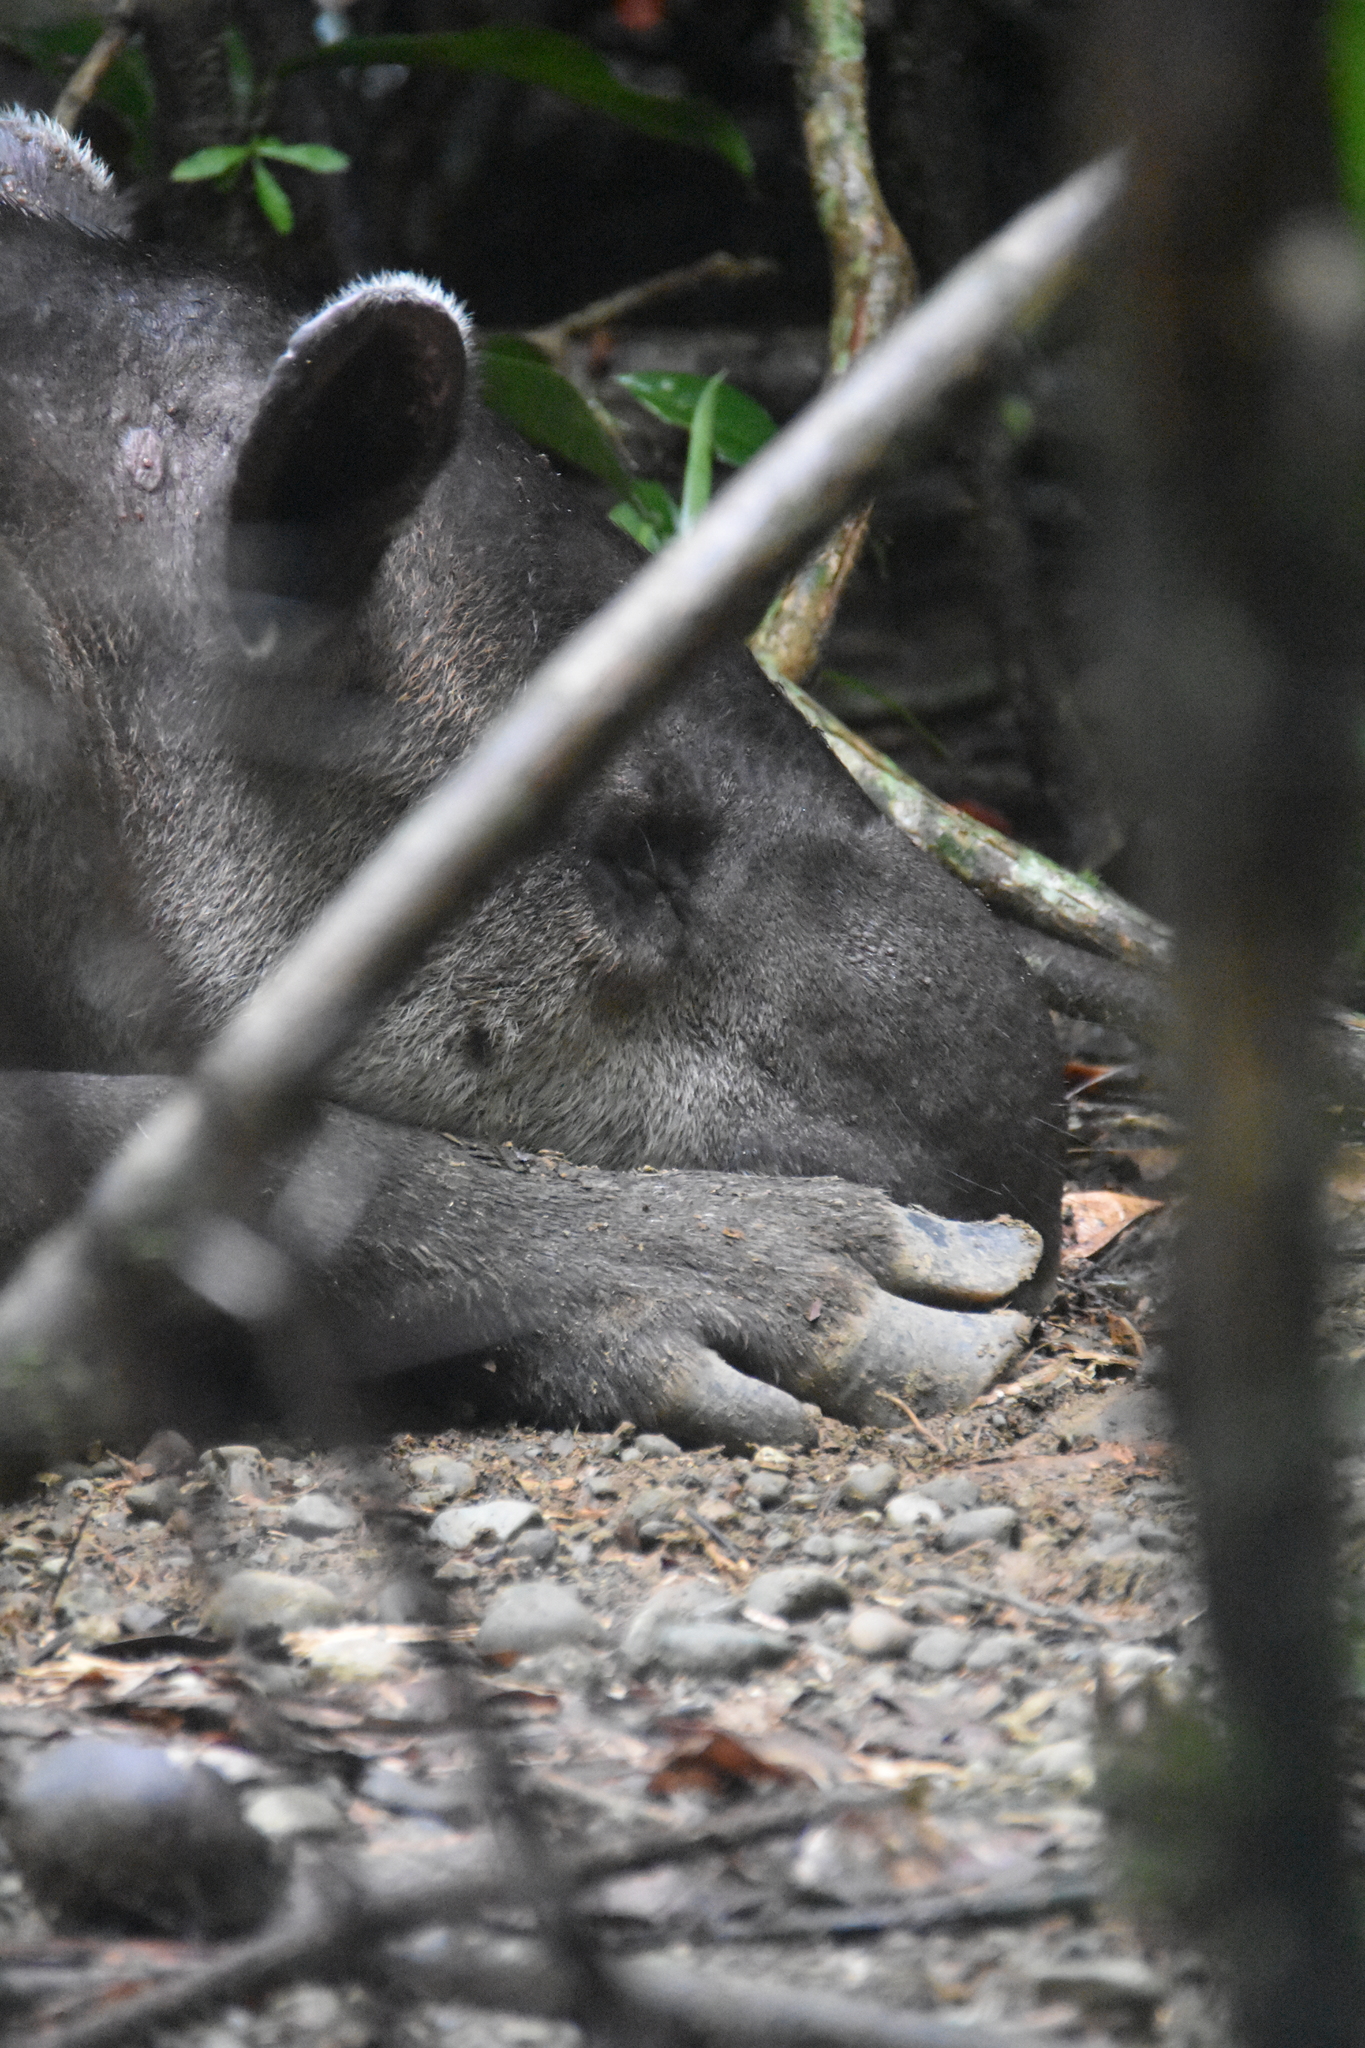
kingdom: Animalia
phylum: Chordata
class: Mammalia
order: Perissodactyla
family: Tapiridae
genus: Tapirella
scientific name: Tapirella bairdii
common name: Baird's tapir
